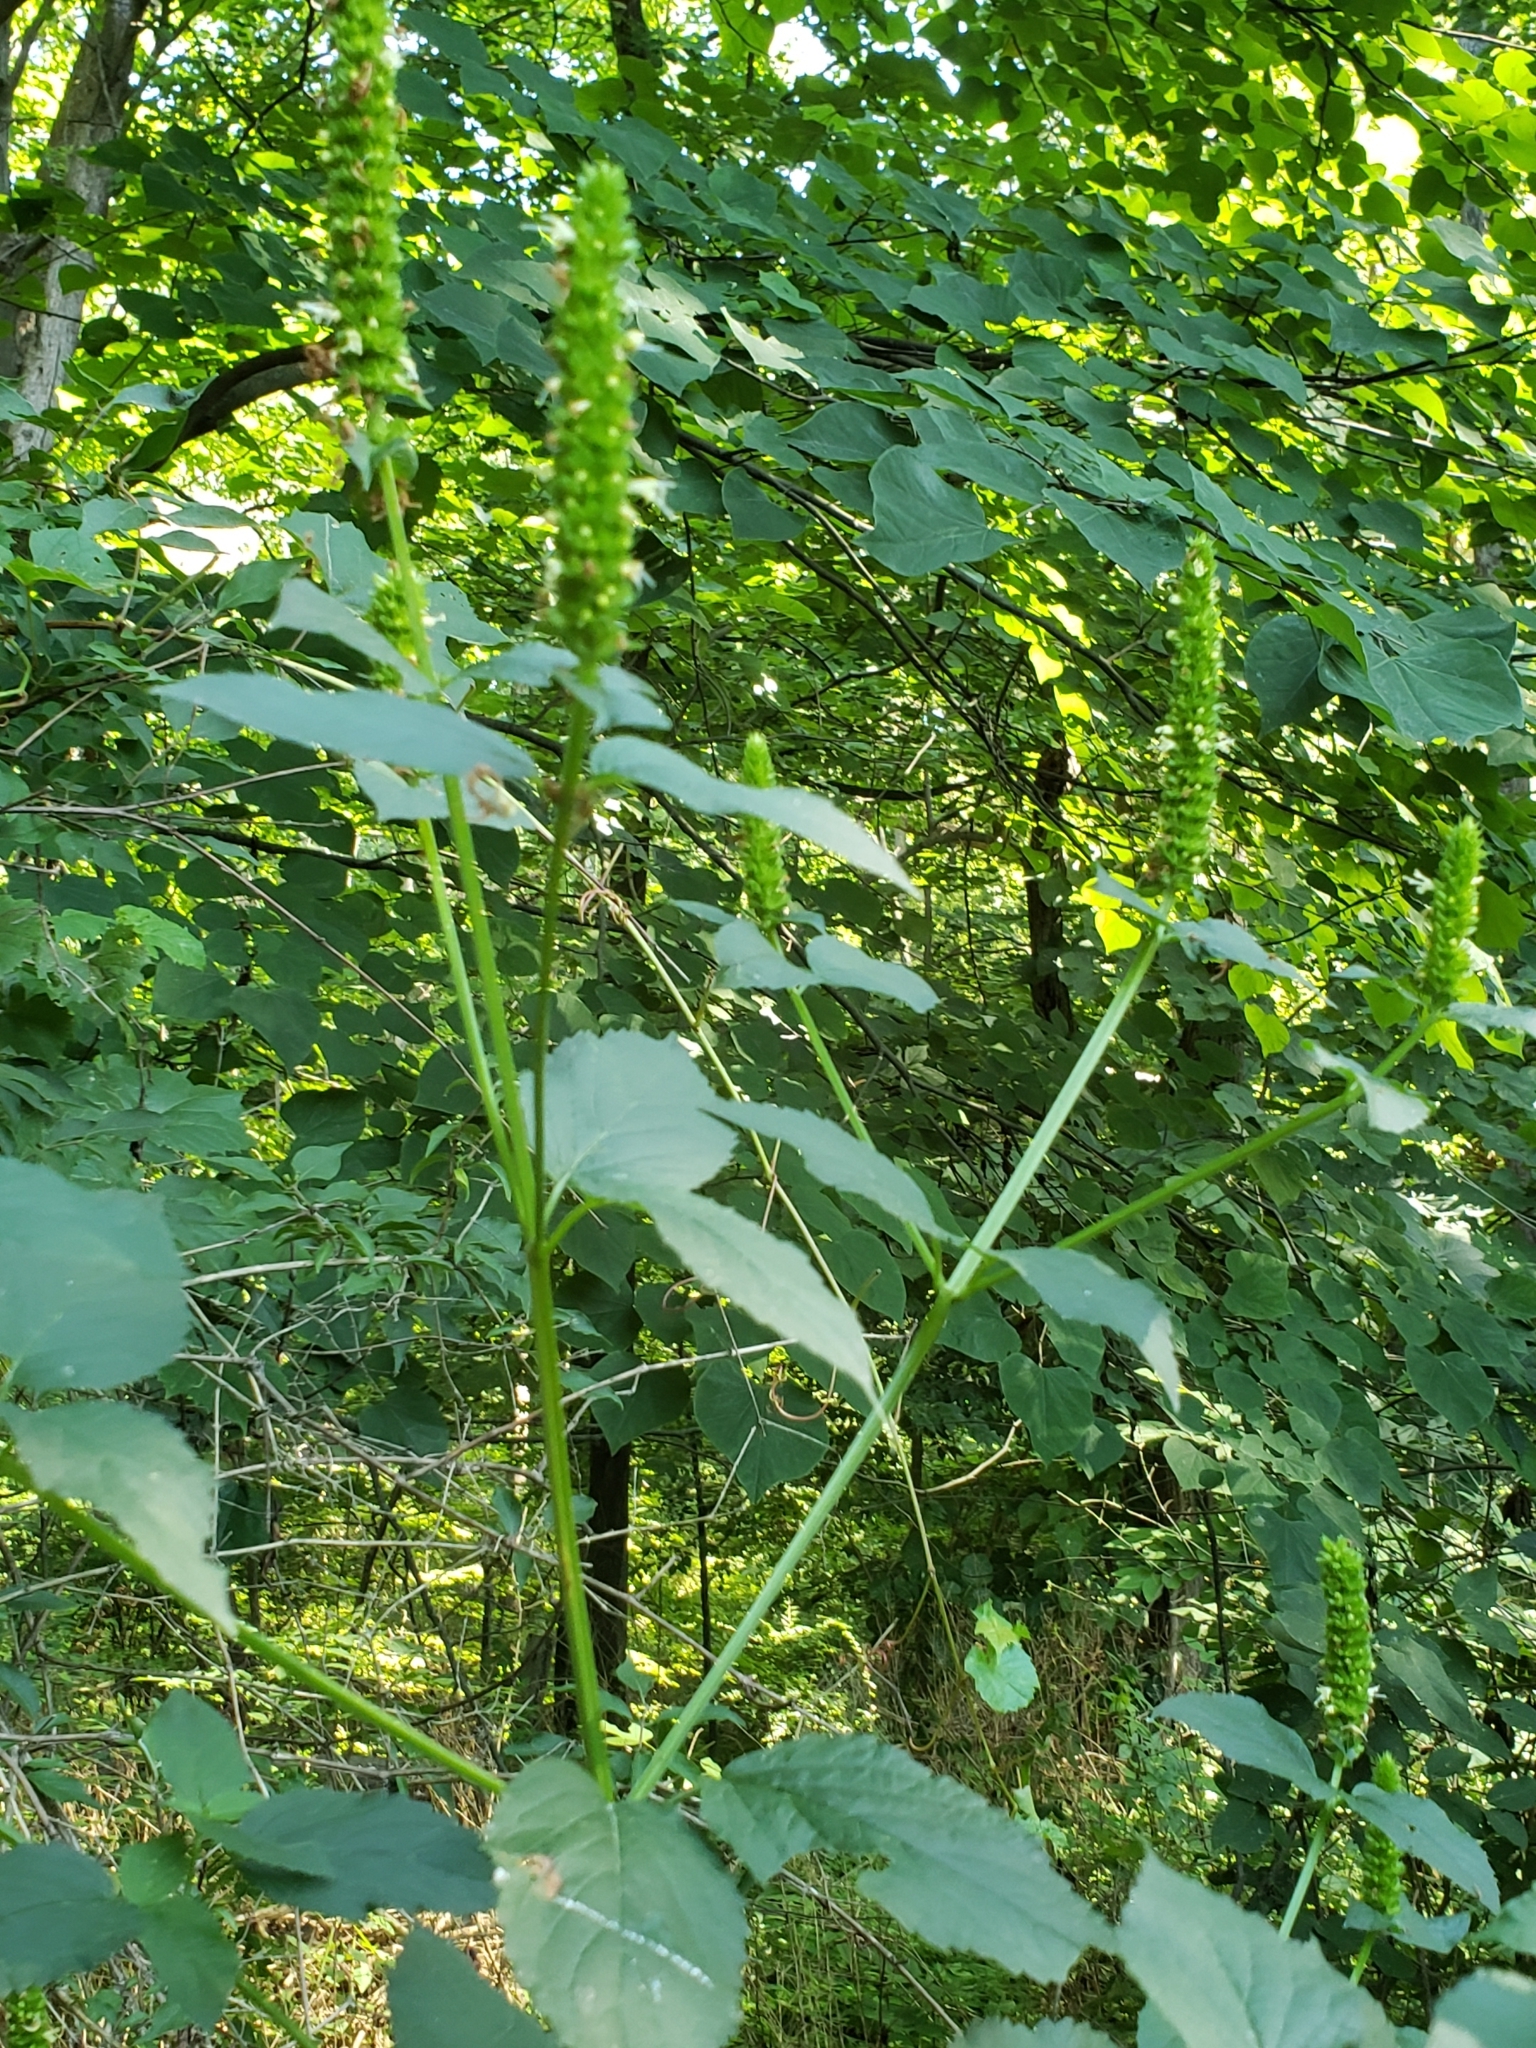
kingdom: Plantae
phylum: Tracheophyta
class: Magnoliopsida
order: Lamiales
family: Lamiaceae
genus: Agastache
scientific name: Agastache nepetoides
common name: Catnip giant hyssop
